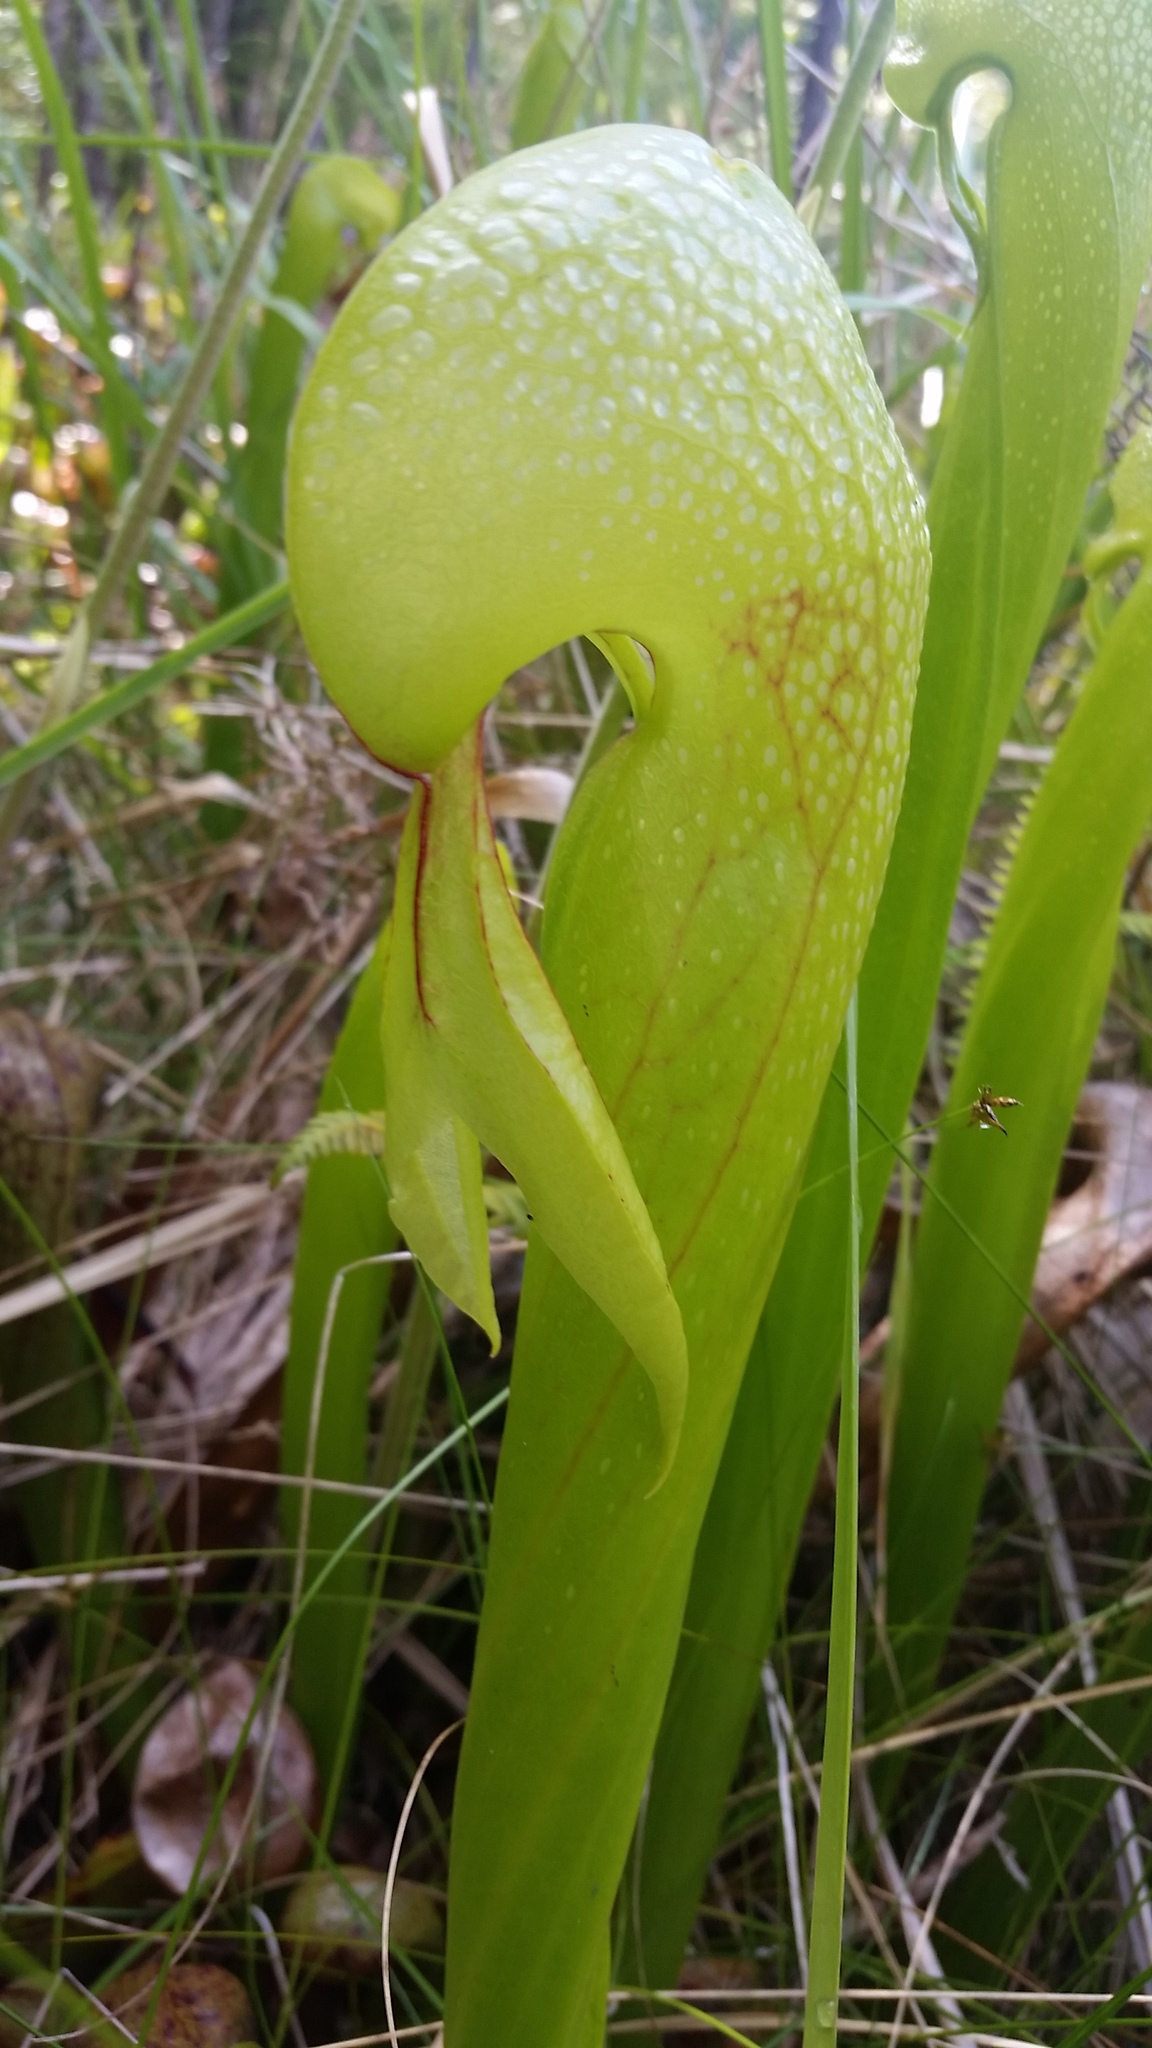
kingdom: Plantae
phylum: Tracheophyta
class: Magnoliopsida
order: Ericales
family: Sarraceniaceae
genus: Darlingtonia
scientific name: Darlingtonia californica
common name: California pitcher plant
